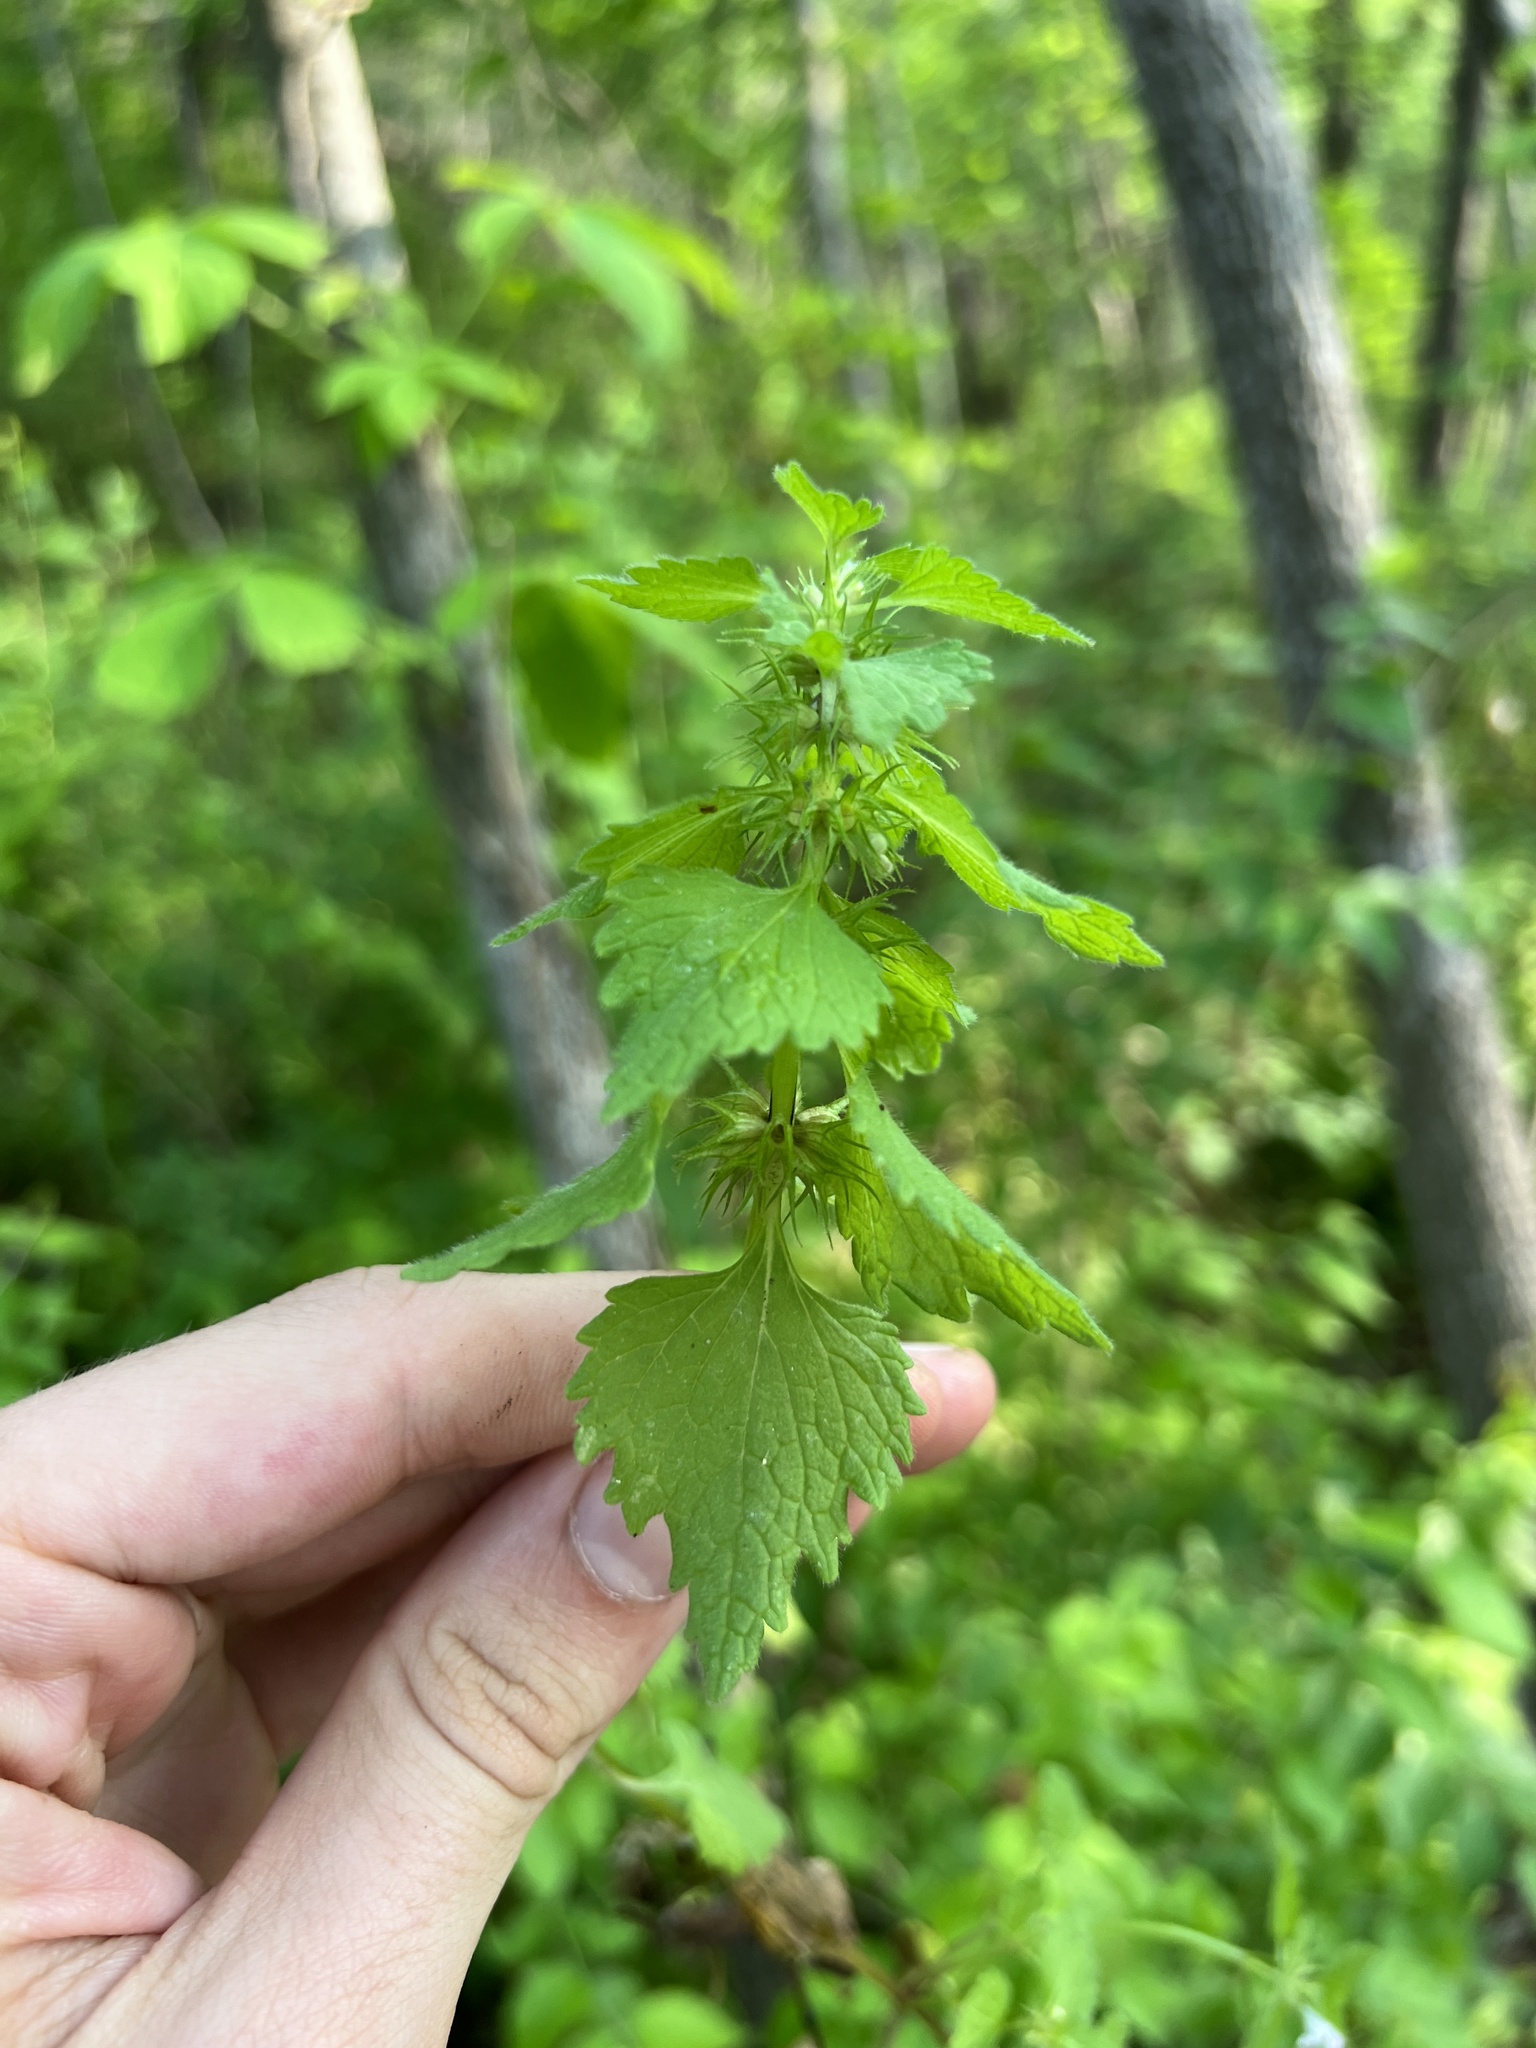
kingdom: Plantae
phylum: Tracheophyta
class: Magnoliopsida
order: Lamiales
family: Lamiaceae
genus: Lamium
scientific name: Lamium purpureum
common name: Red dead-nettle
